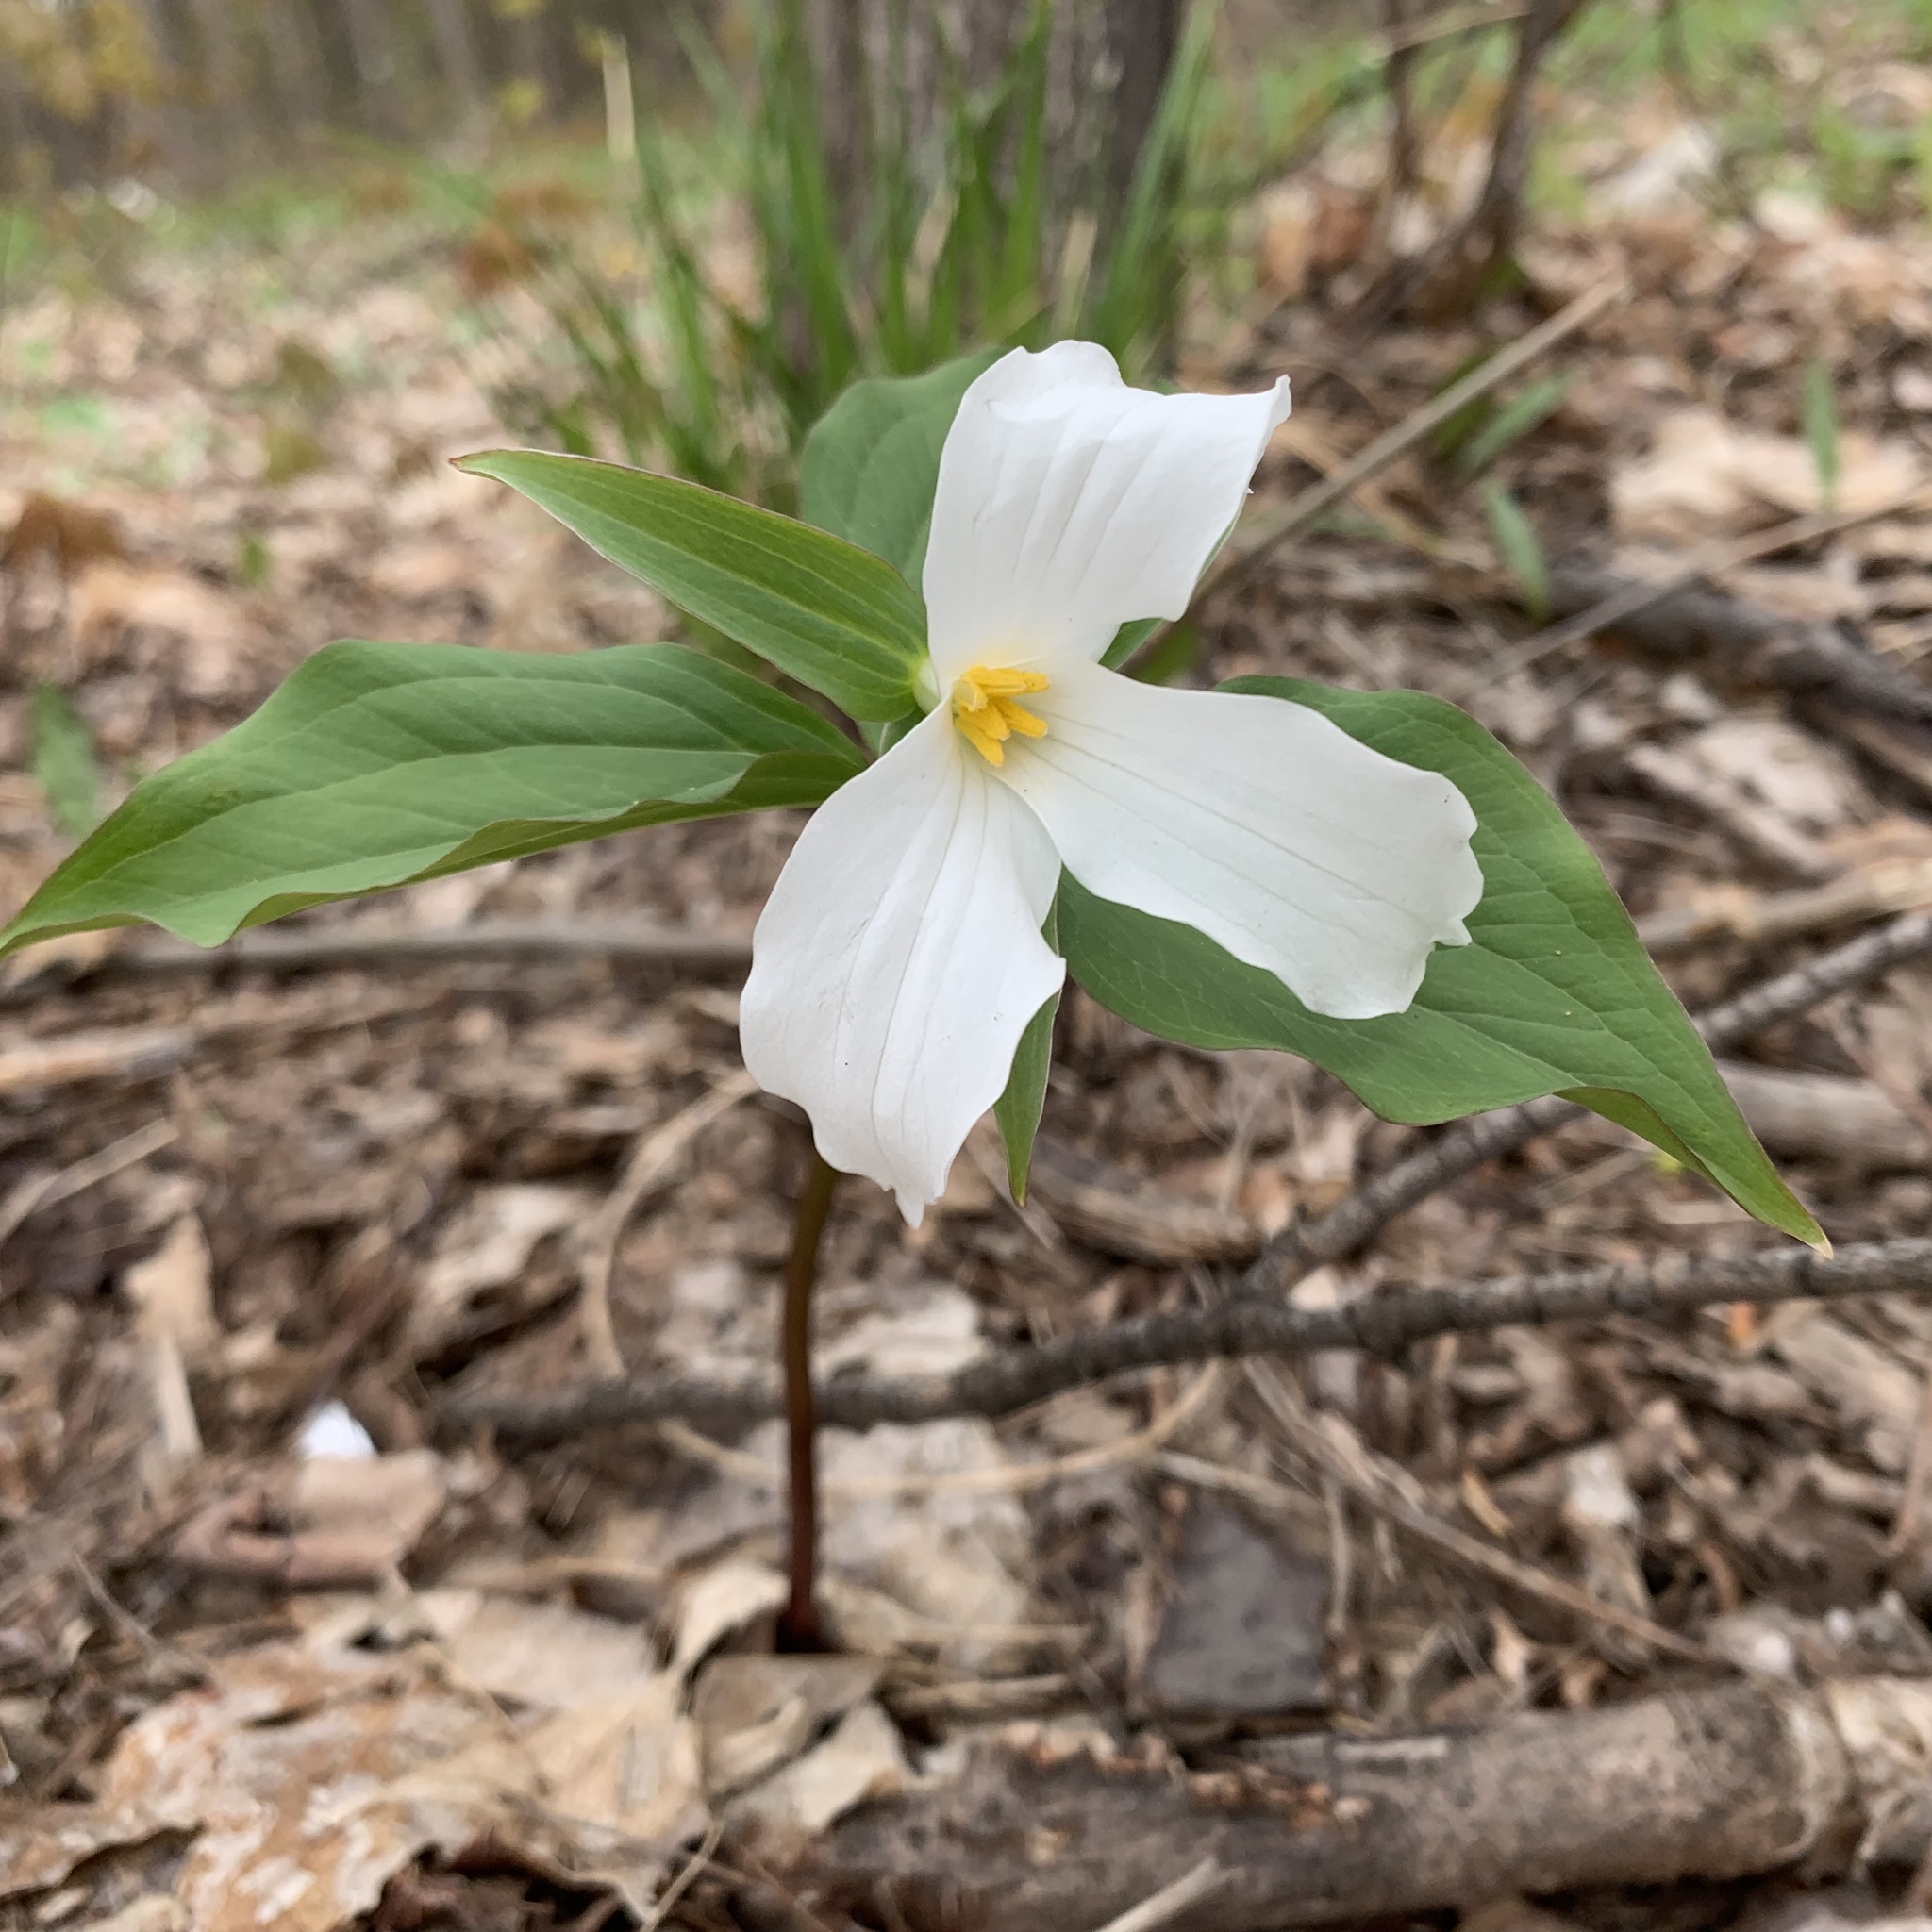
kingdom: Plantae
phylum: Tracheophyta
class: Liliopsida
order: Liliales
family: Melanthiaceae
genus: Trillium
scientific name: Trillium grandiflorum
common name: Great white trillium
